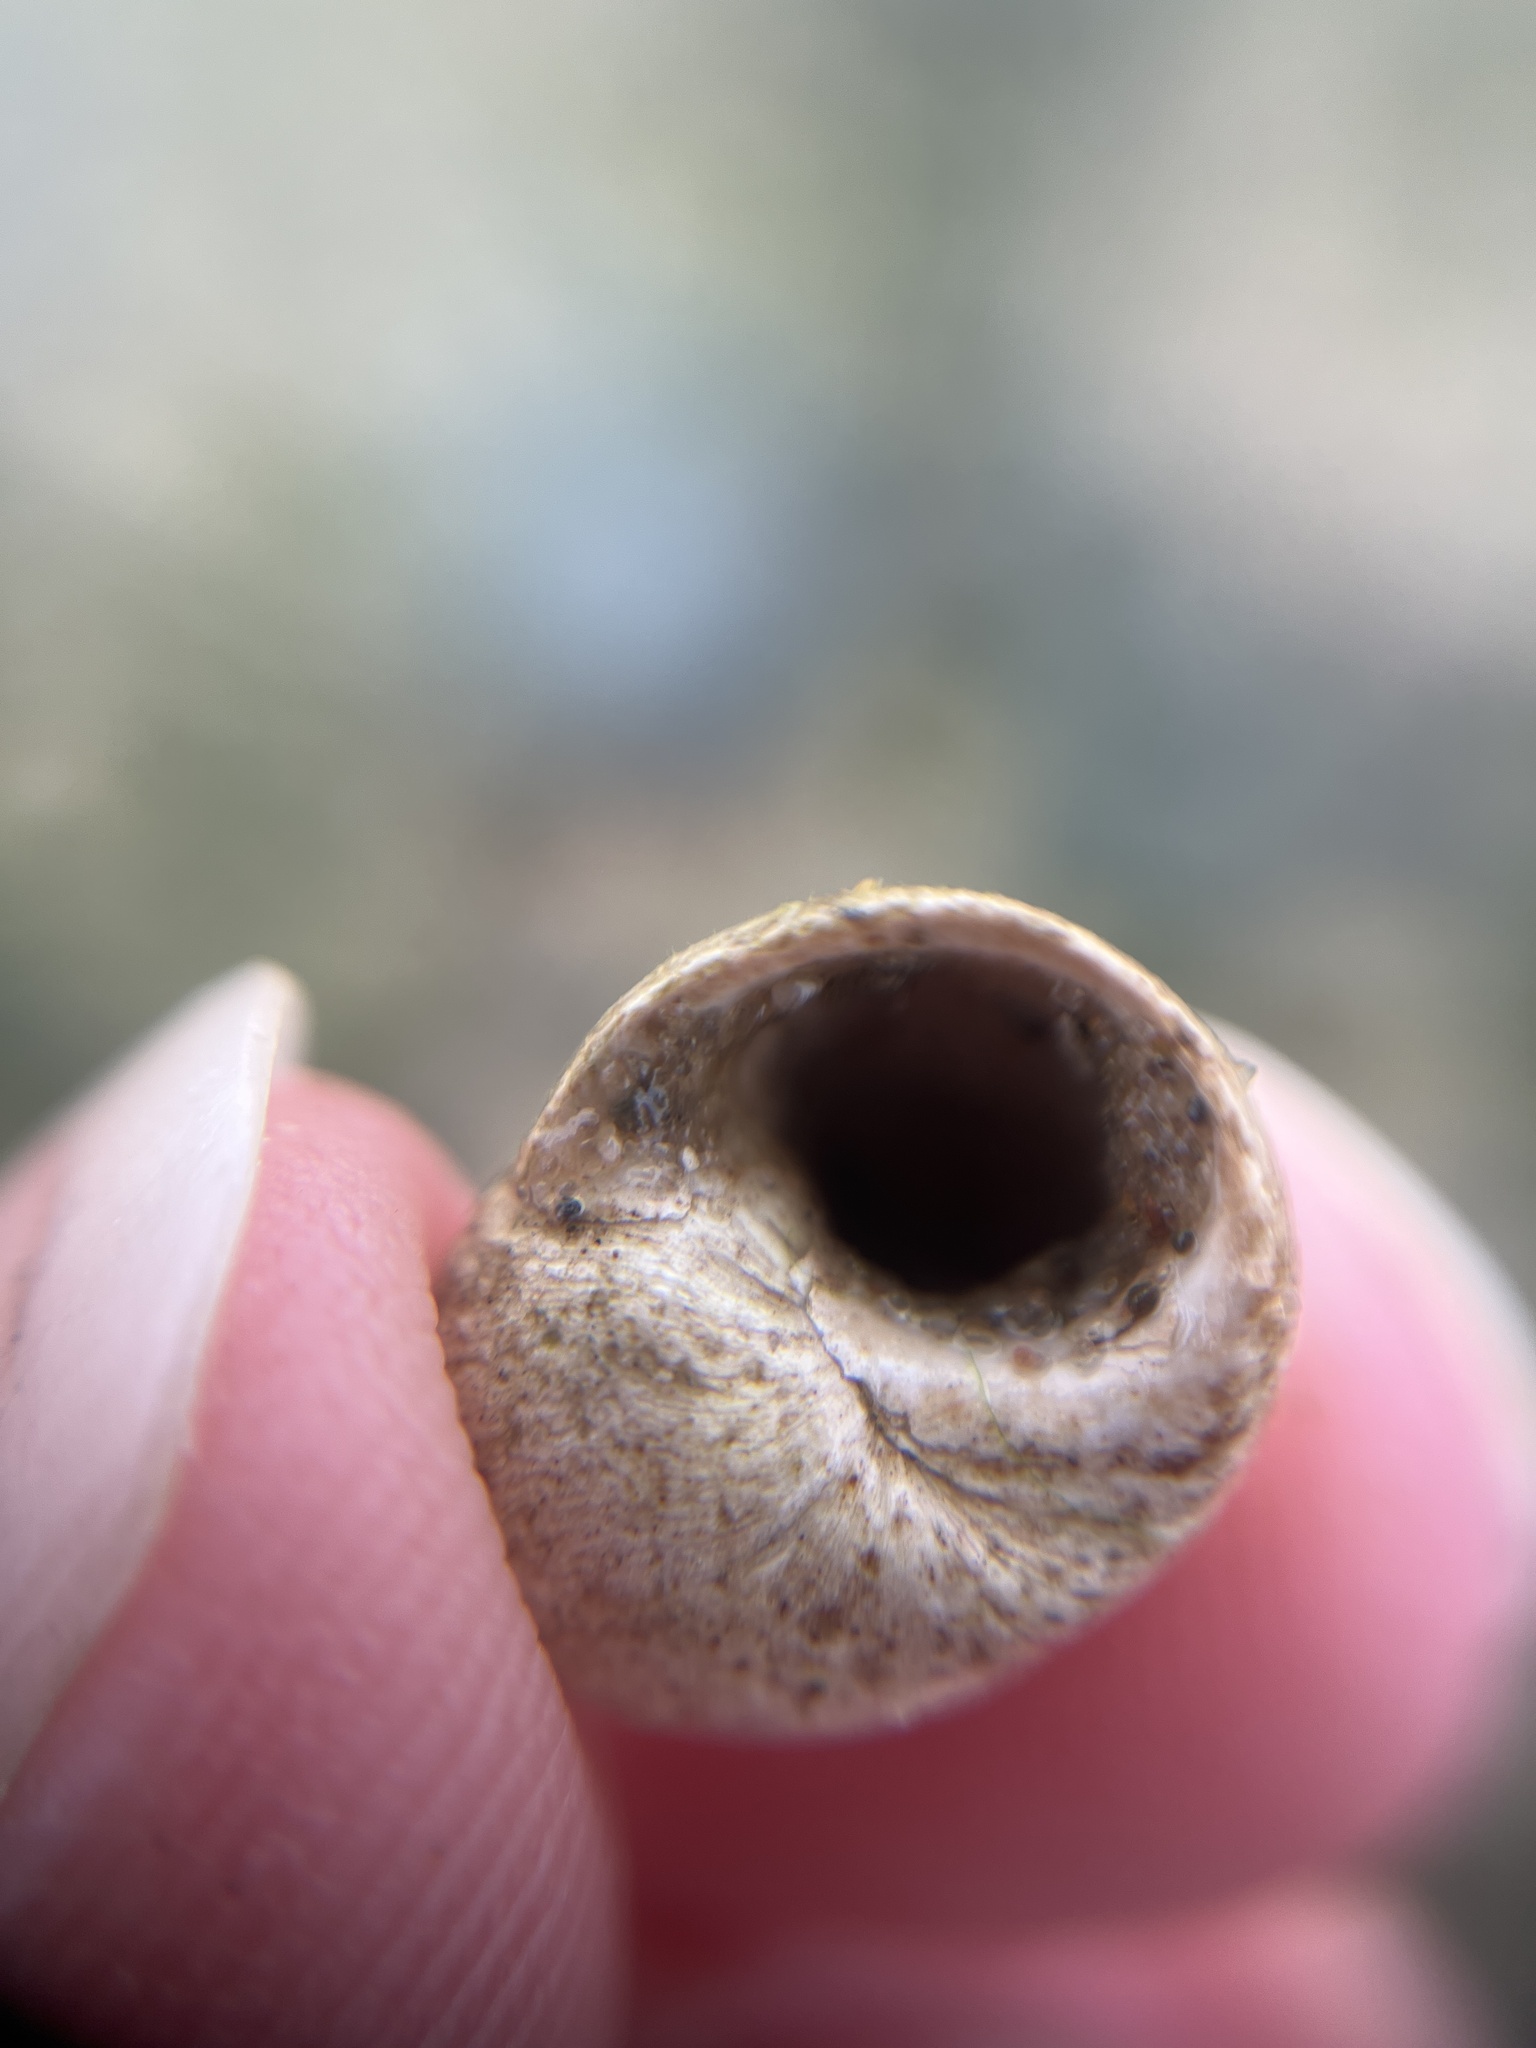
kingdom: Animalia
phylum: Mollusca
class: Gastropoda
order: Littorinimorpha
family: Littorinidae
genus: Littorina
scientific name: Littorina
